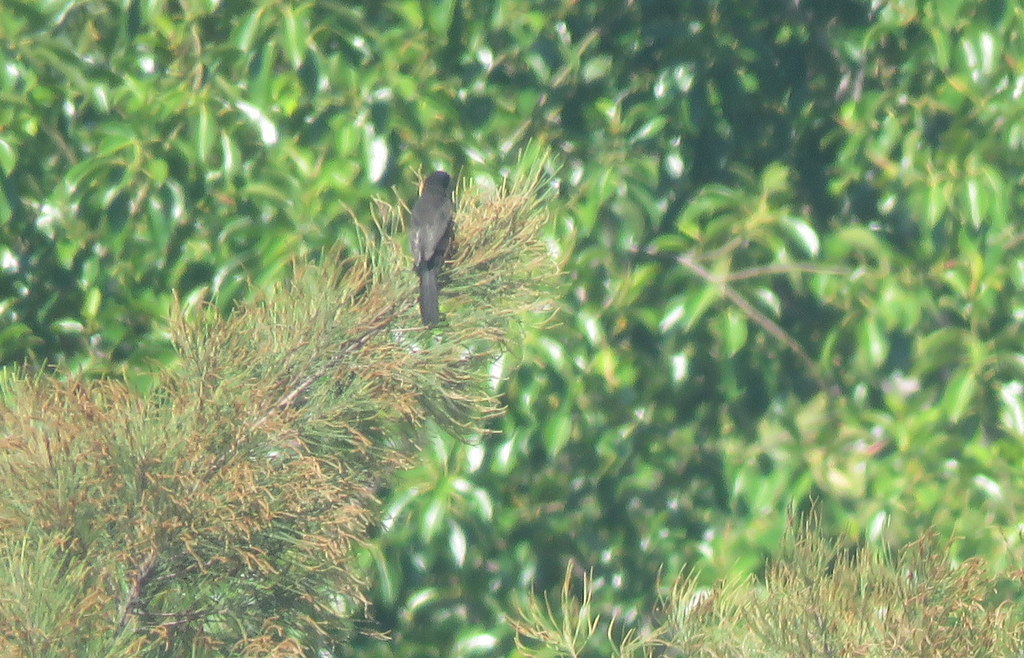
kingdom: Animalia
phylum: Chordata
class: Aves
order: Passeriformes
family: Icteridae
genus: Icterus
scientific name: Icterus cayanensis
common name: Epaulet oriole
